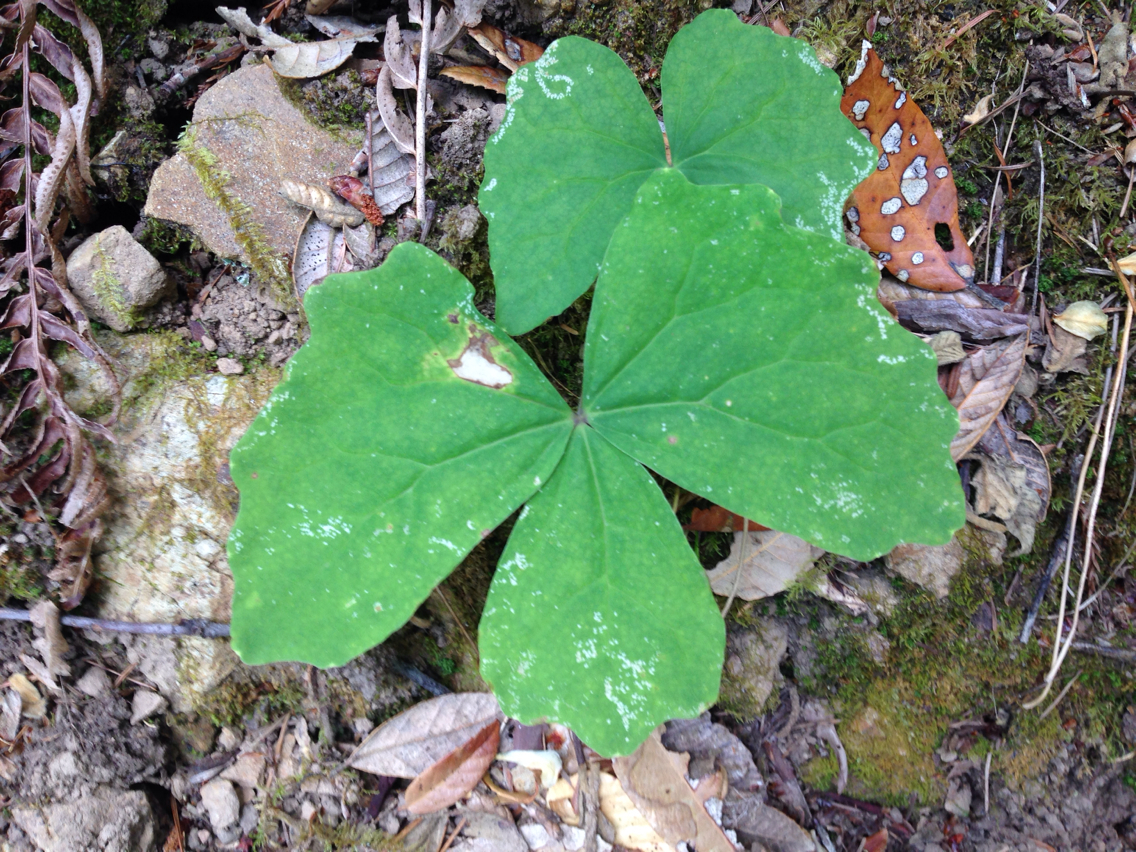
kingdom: Plantae
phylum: Tracheophyta
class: Magnoliopsida
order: Ranunculales
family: Berberidaceae
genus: Achlys
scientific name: Achlys triphylla
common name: Vanilla-leaf
